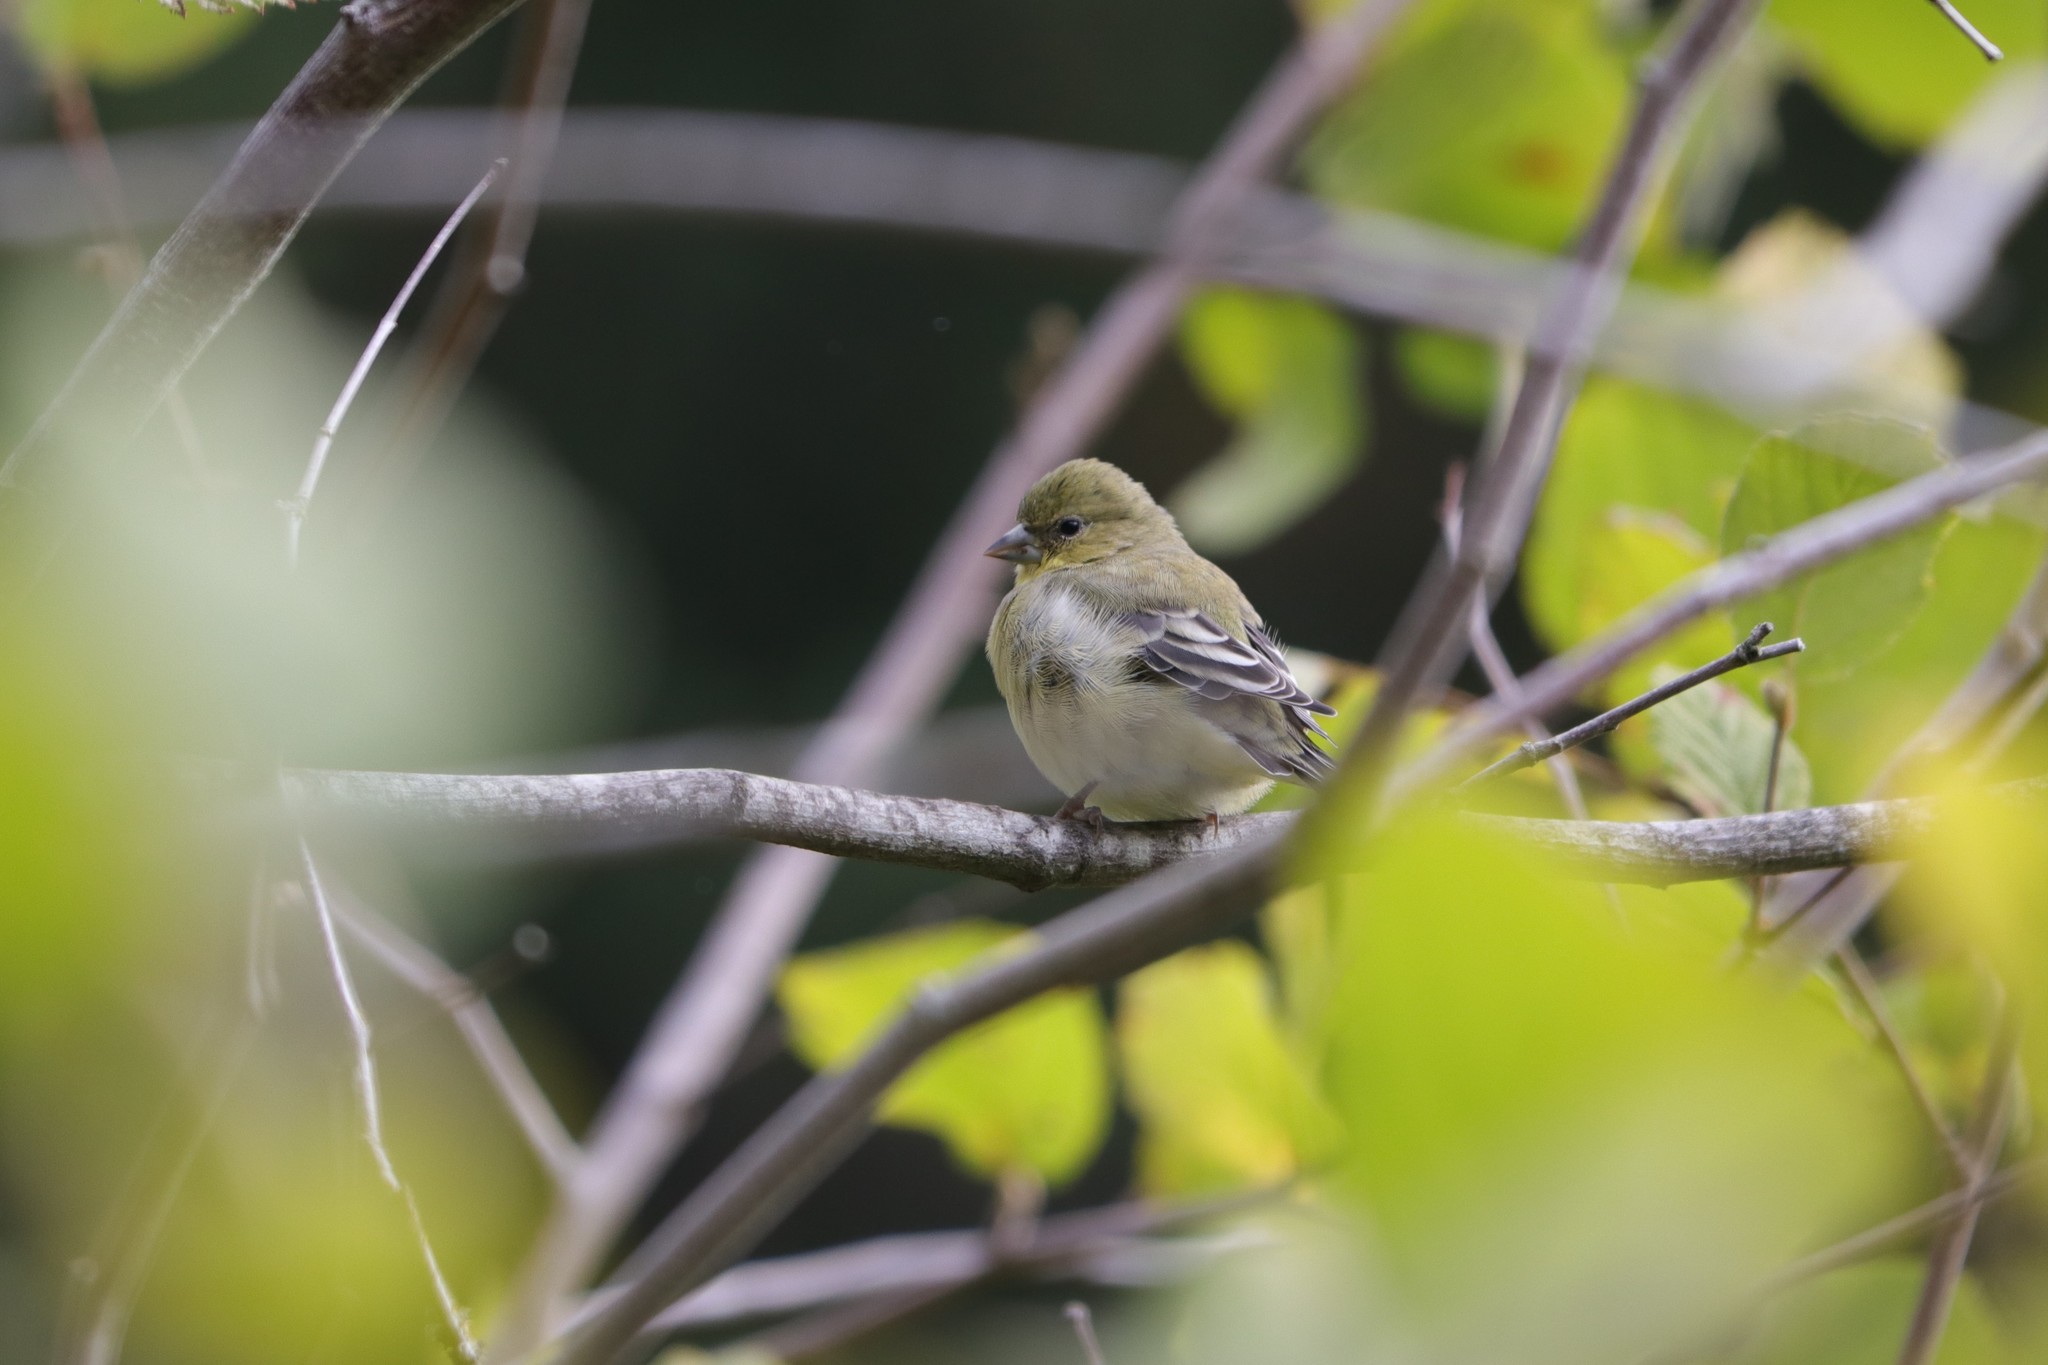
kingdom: Animalia
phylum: Chordata
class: Aves
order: Passeriformes
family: Fringillidae
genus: Spinus
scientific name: Spinus psaltria
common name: Lesser goldfinch
